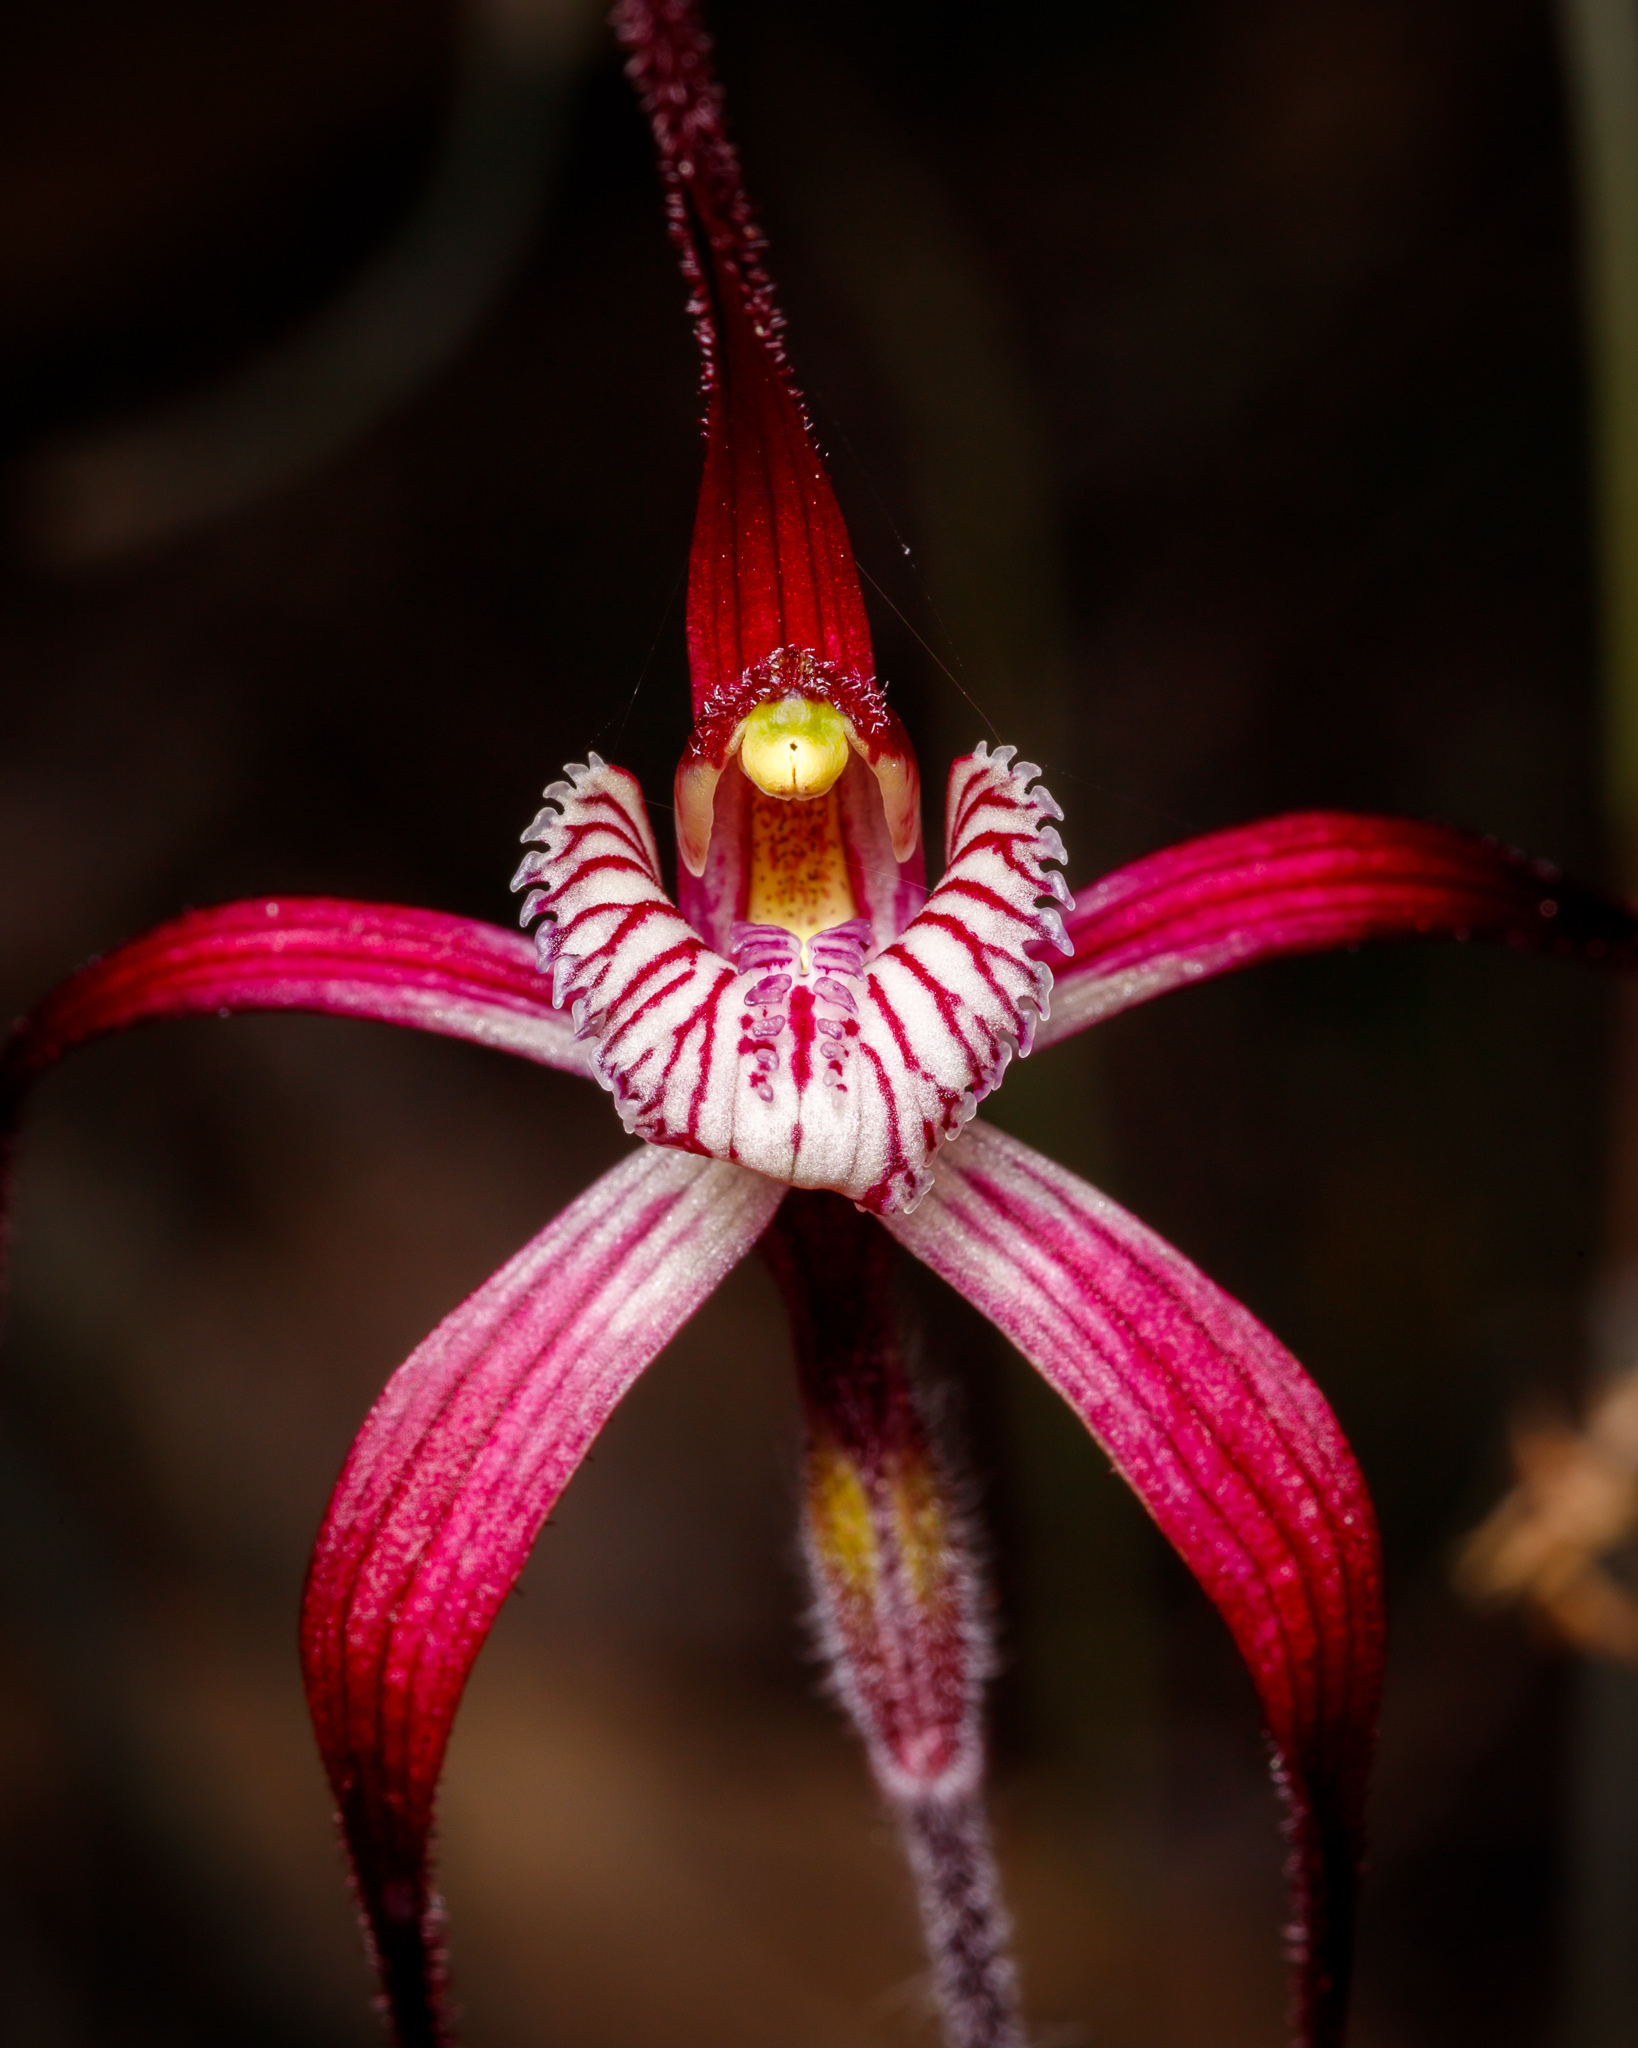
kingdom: Plantae
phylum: Tracheophyta
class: Liliopsida
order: Asparagales
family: Orchidaceae
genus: Caladenia
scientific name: Caladenia chapmanii
